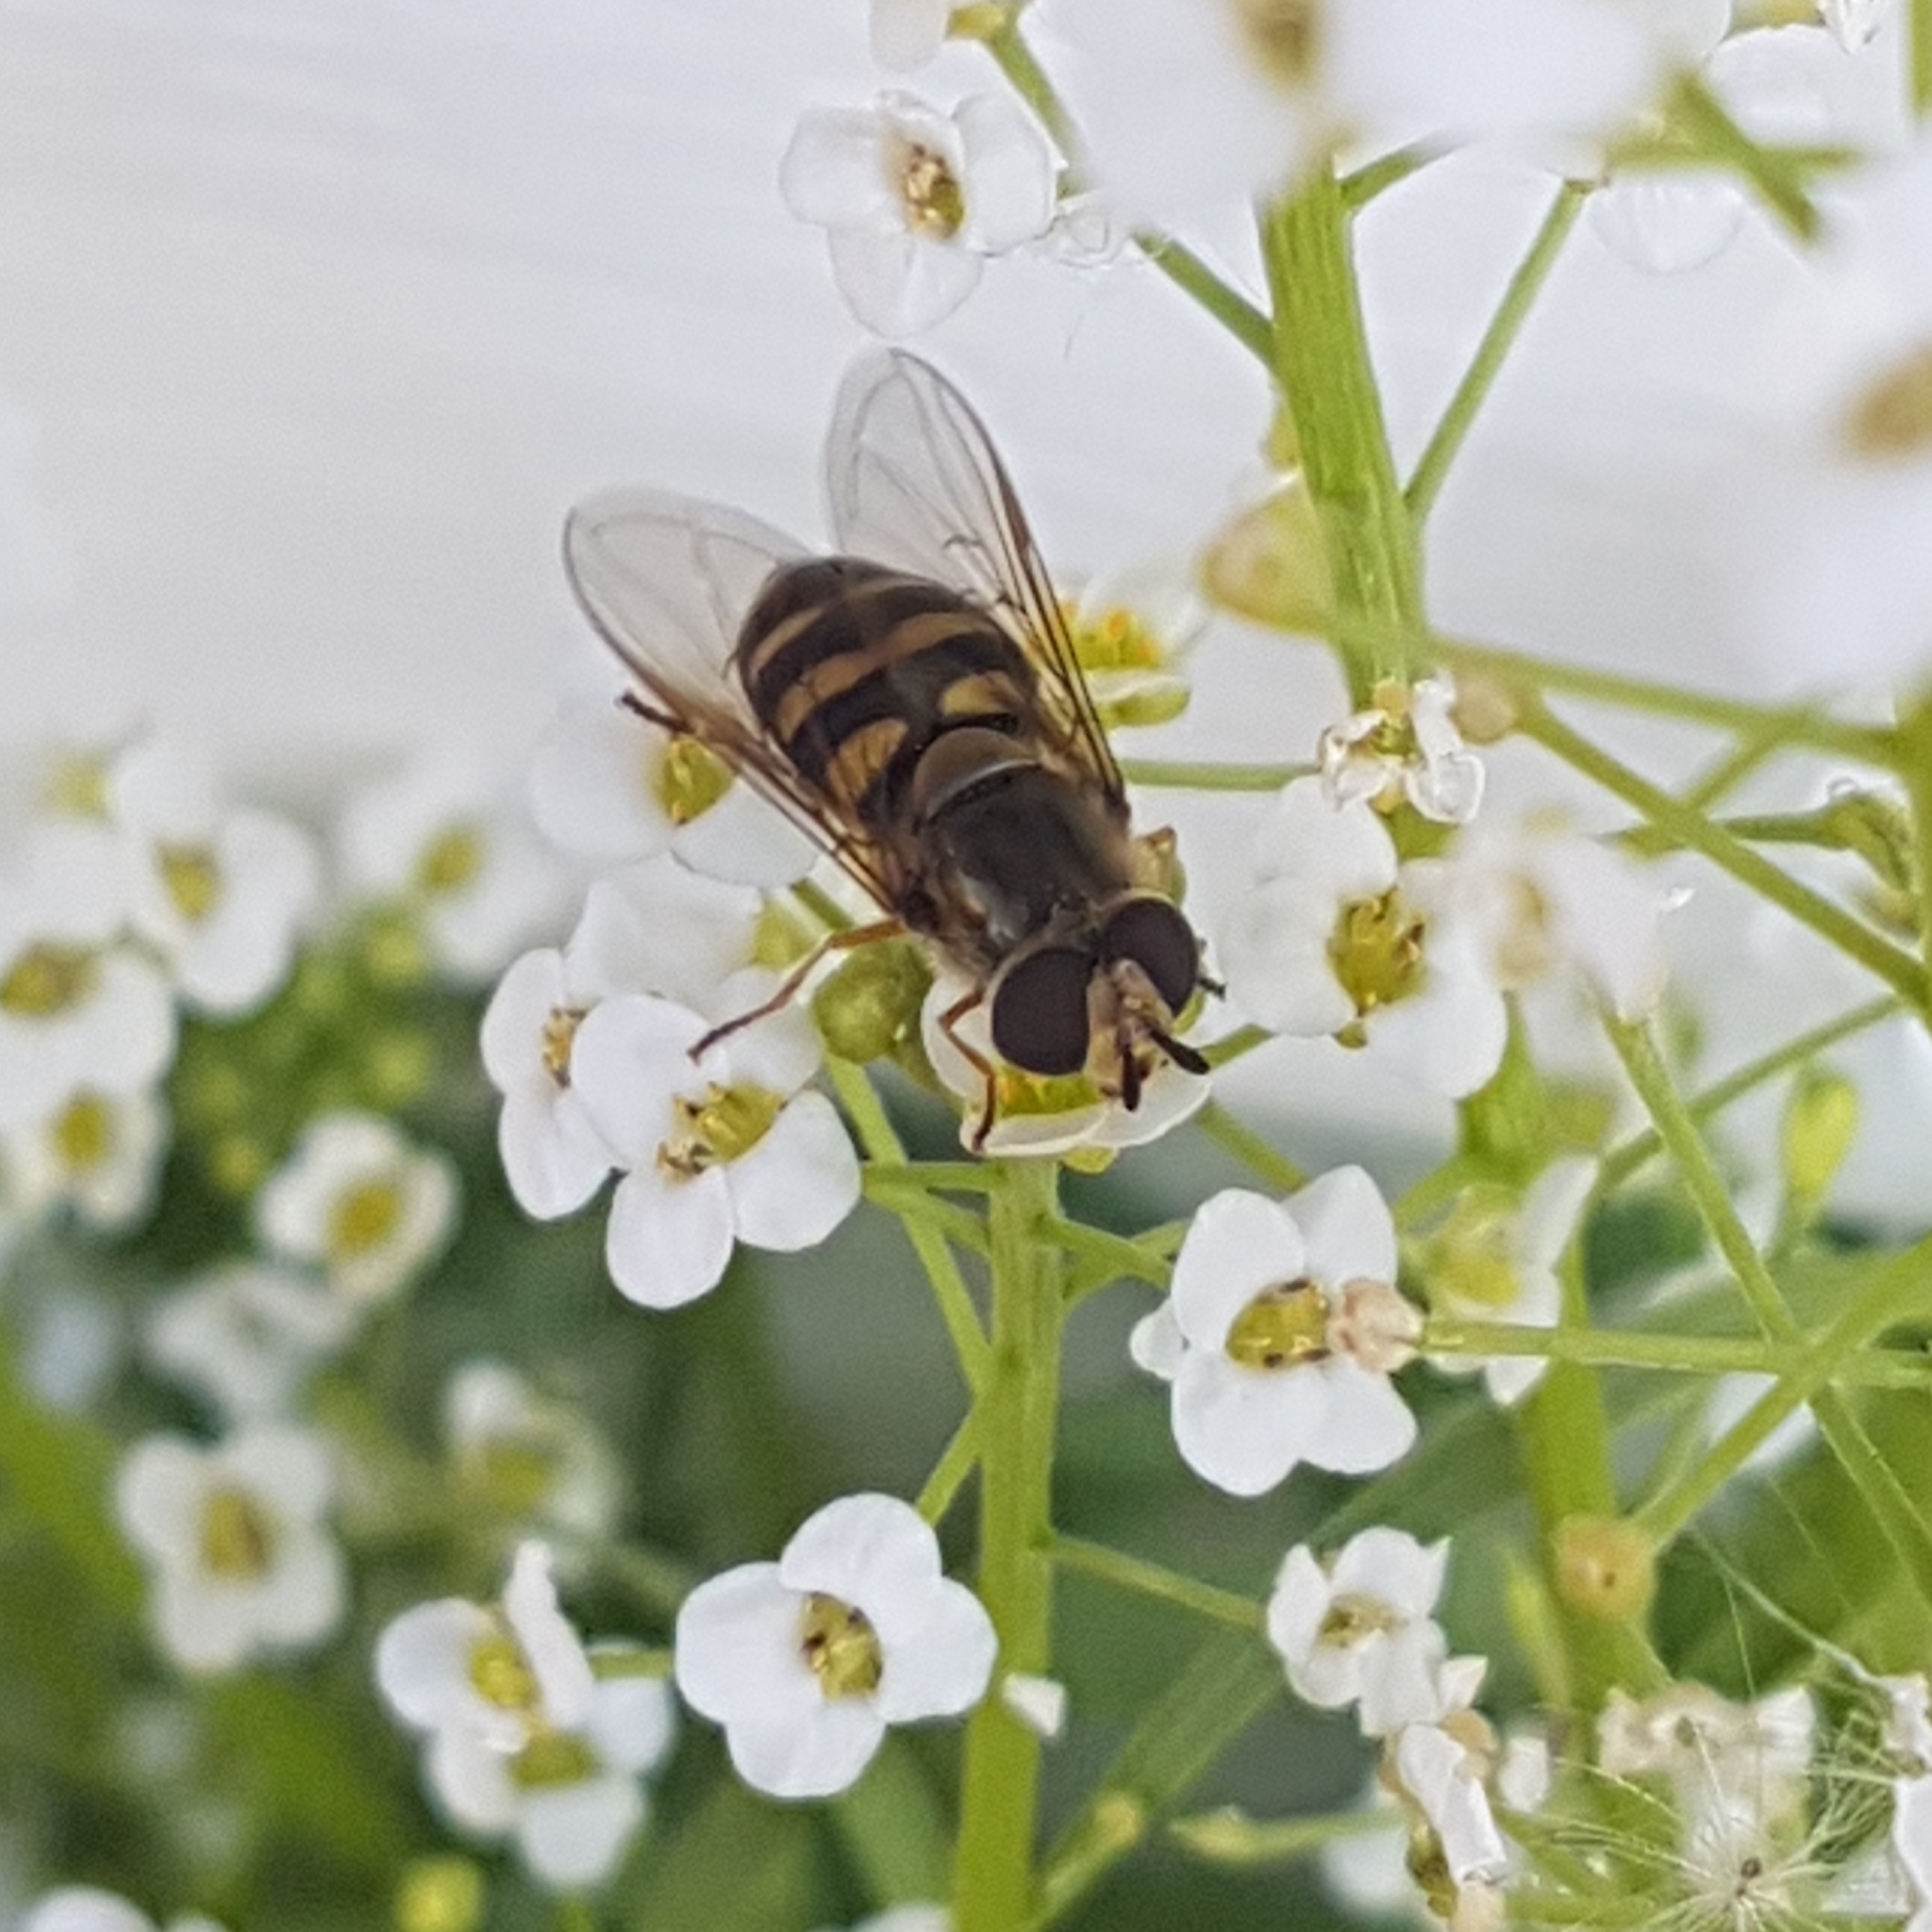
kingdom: Animalia
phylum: Arthropoda
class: Insecta
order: Diptera
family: Syrphidae
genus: Eupeodes
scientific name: Eupeodes fumipennis
